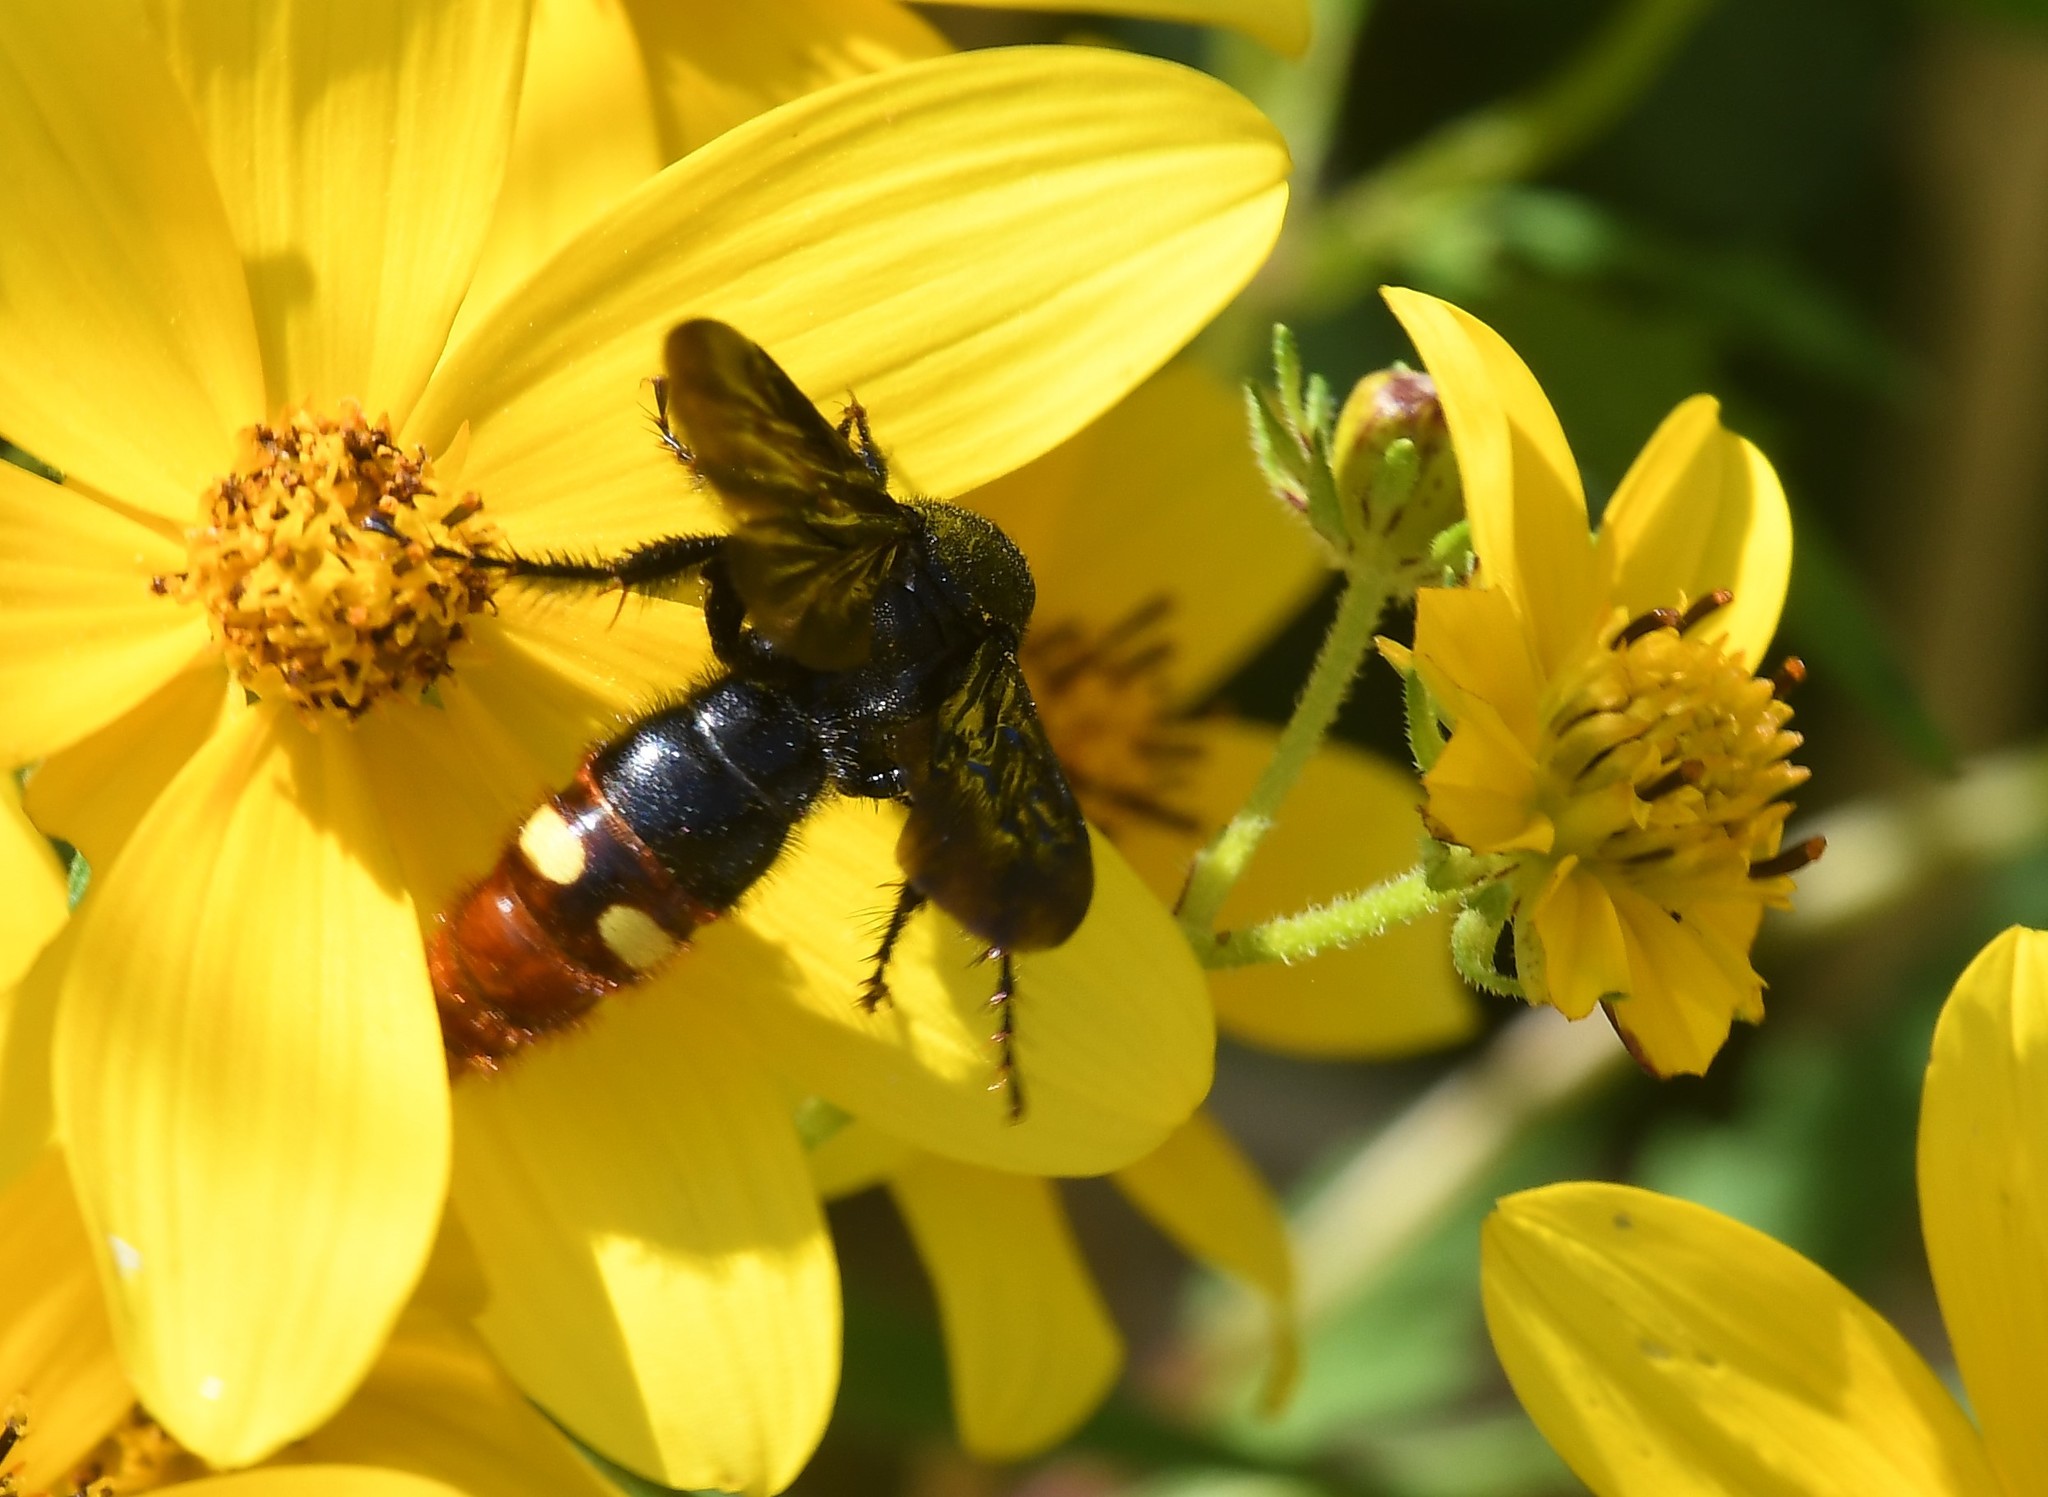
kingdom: Animalia
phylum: Arthropoda
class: Insecta
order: Hymenoptera
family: Scoliidae
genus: Scolia
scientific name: Scolia dubia
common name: Blue-winged scoliid wasp
